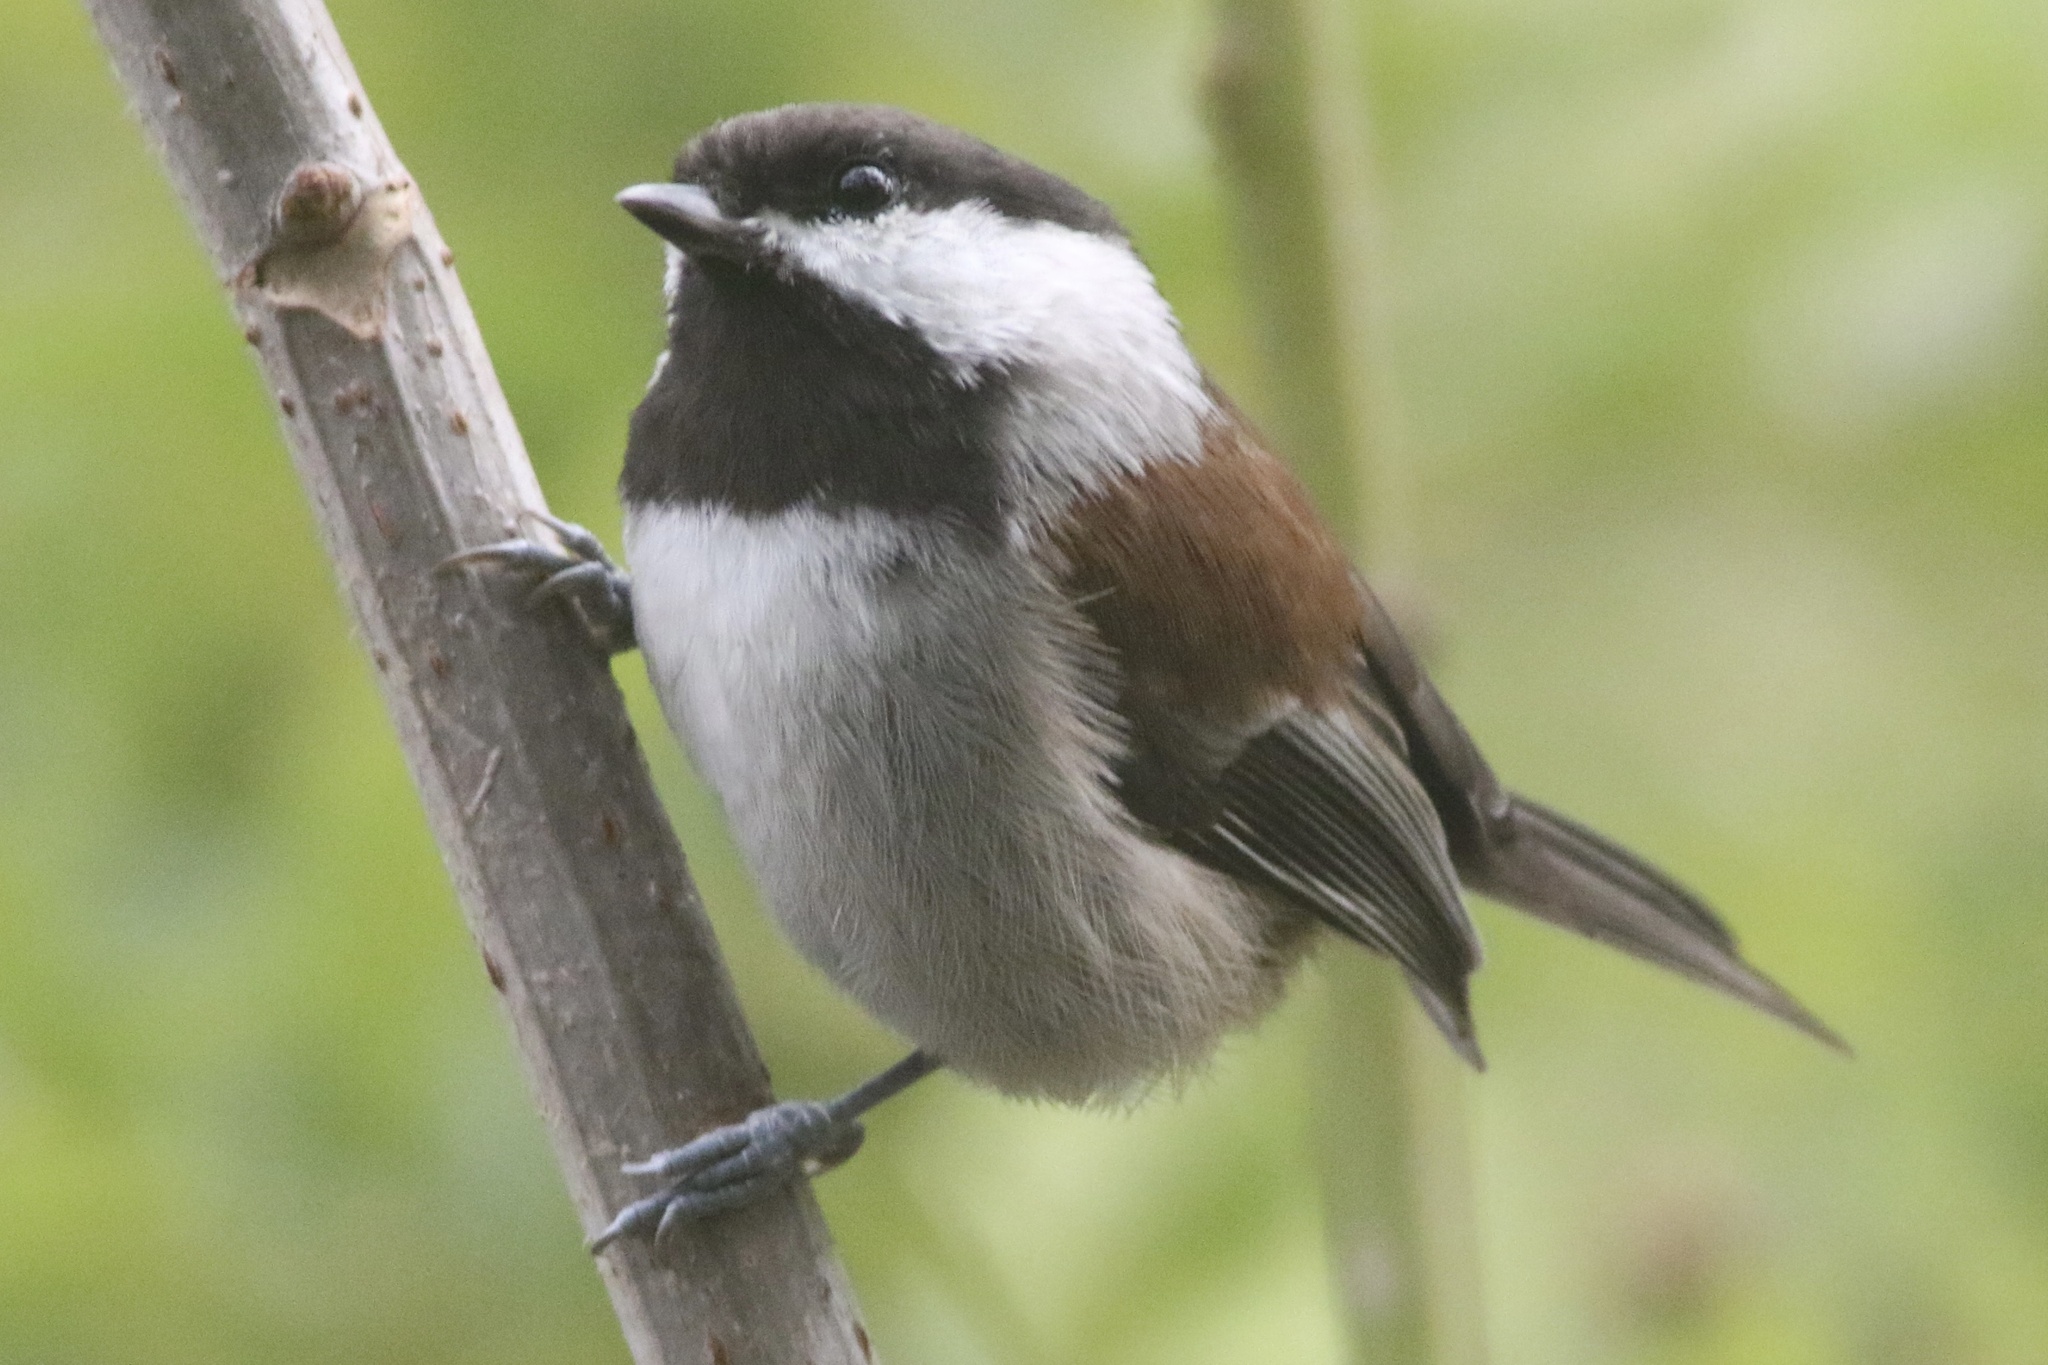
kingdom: Animalia
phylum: Chordata
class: Aves
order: Passeriformes
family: Paridae
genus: Poecile
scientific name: Poecile rufescens
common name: Chestnut-backed chickadee
